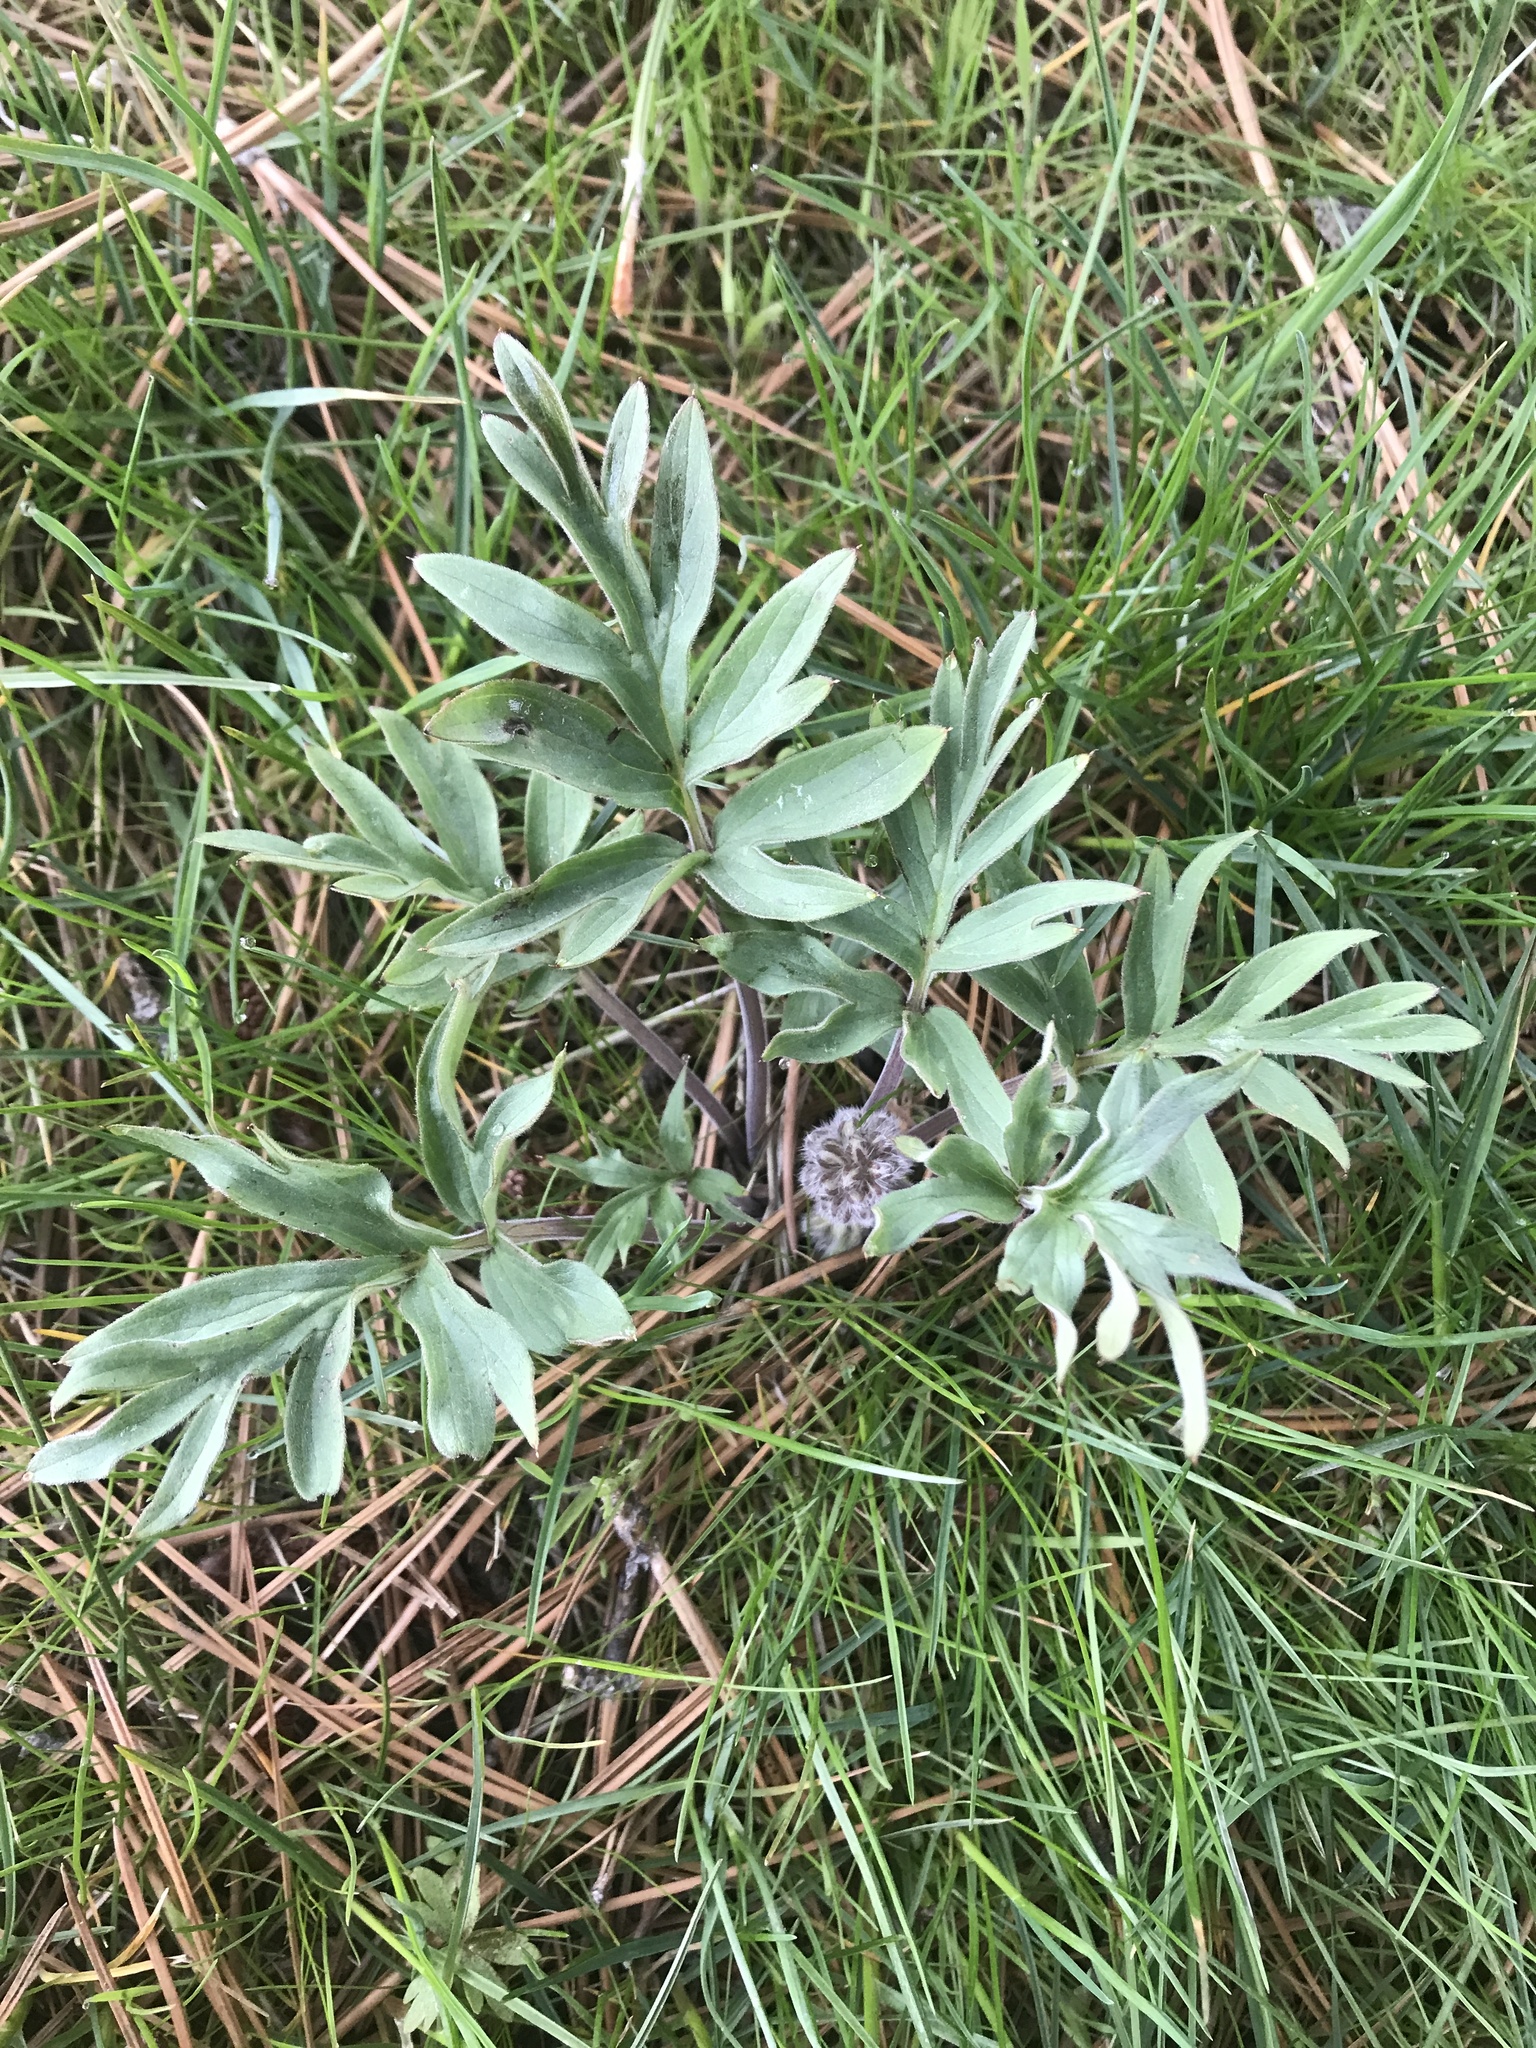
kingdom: Plantae
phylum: Tracheophyta
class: Magnoliopsida
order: Boraginales
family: Hydrophyllaceae
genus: Hydrophyllum
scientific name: Hydrophyllum capitatum
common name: Woollen-breeches
